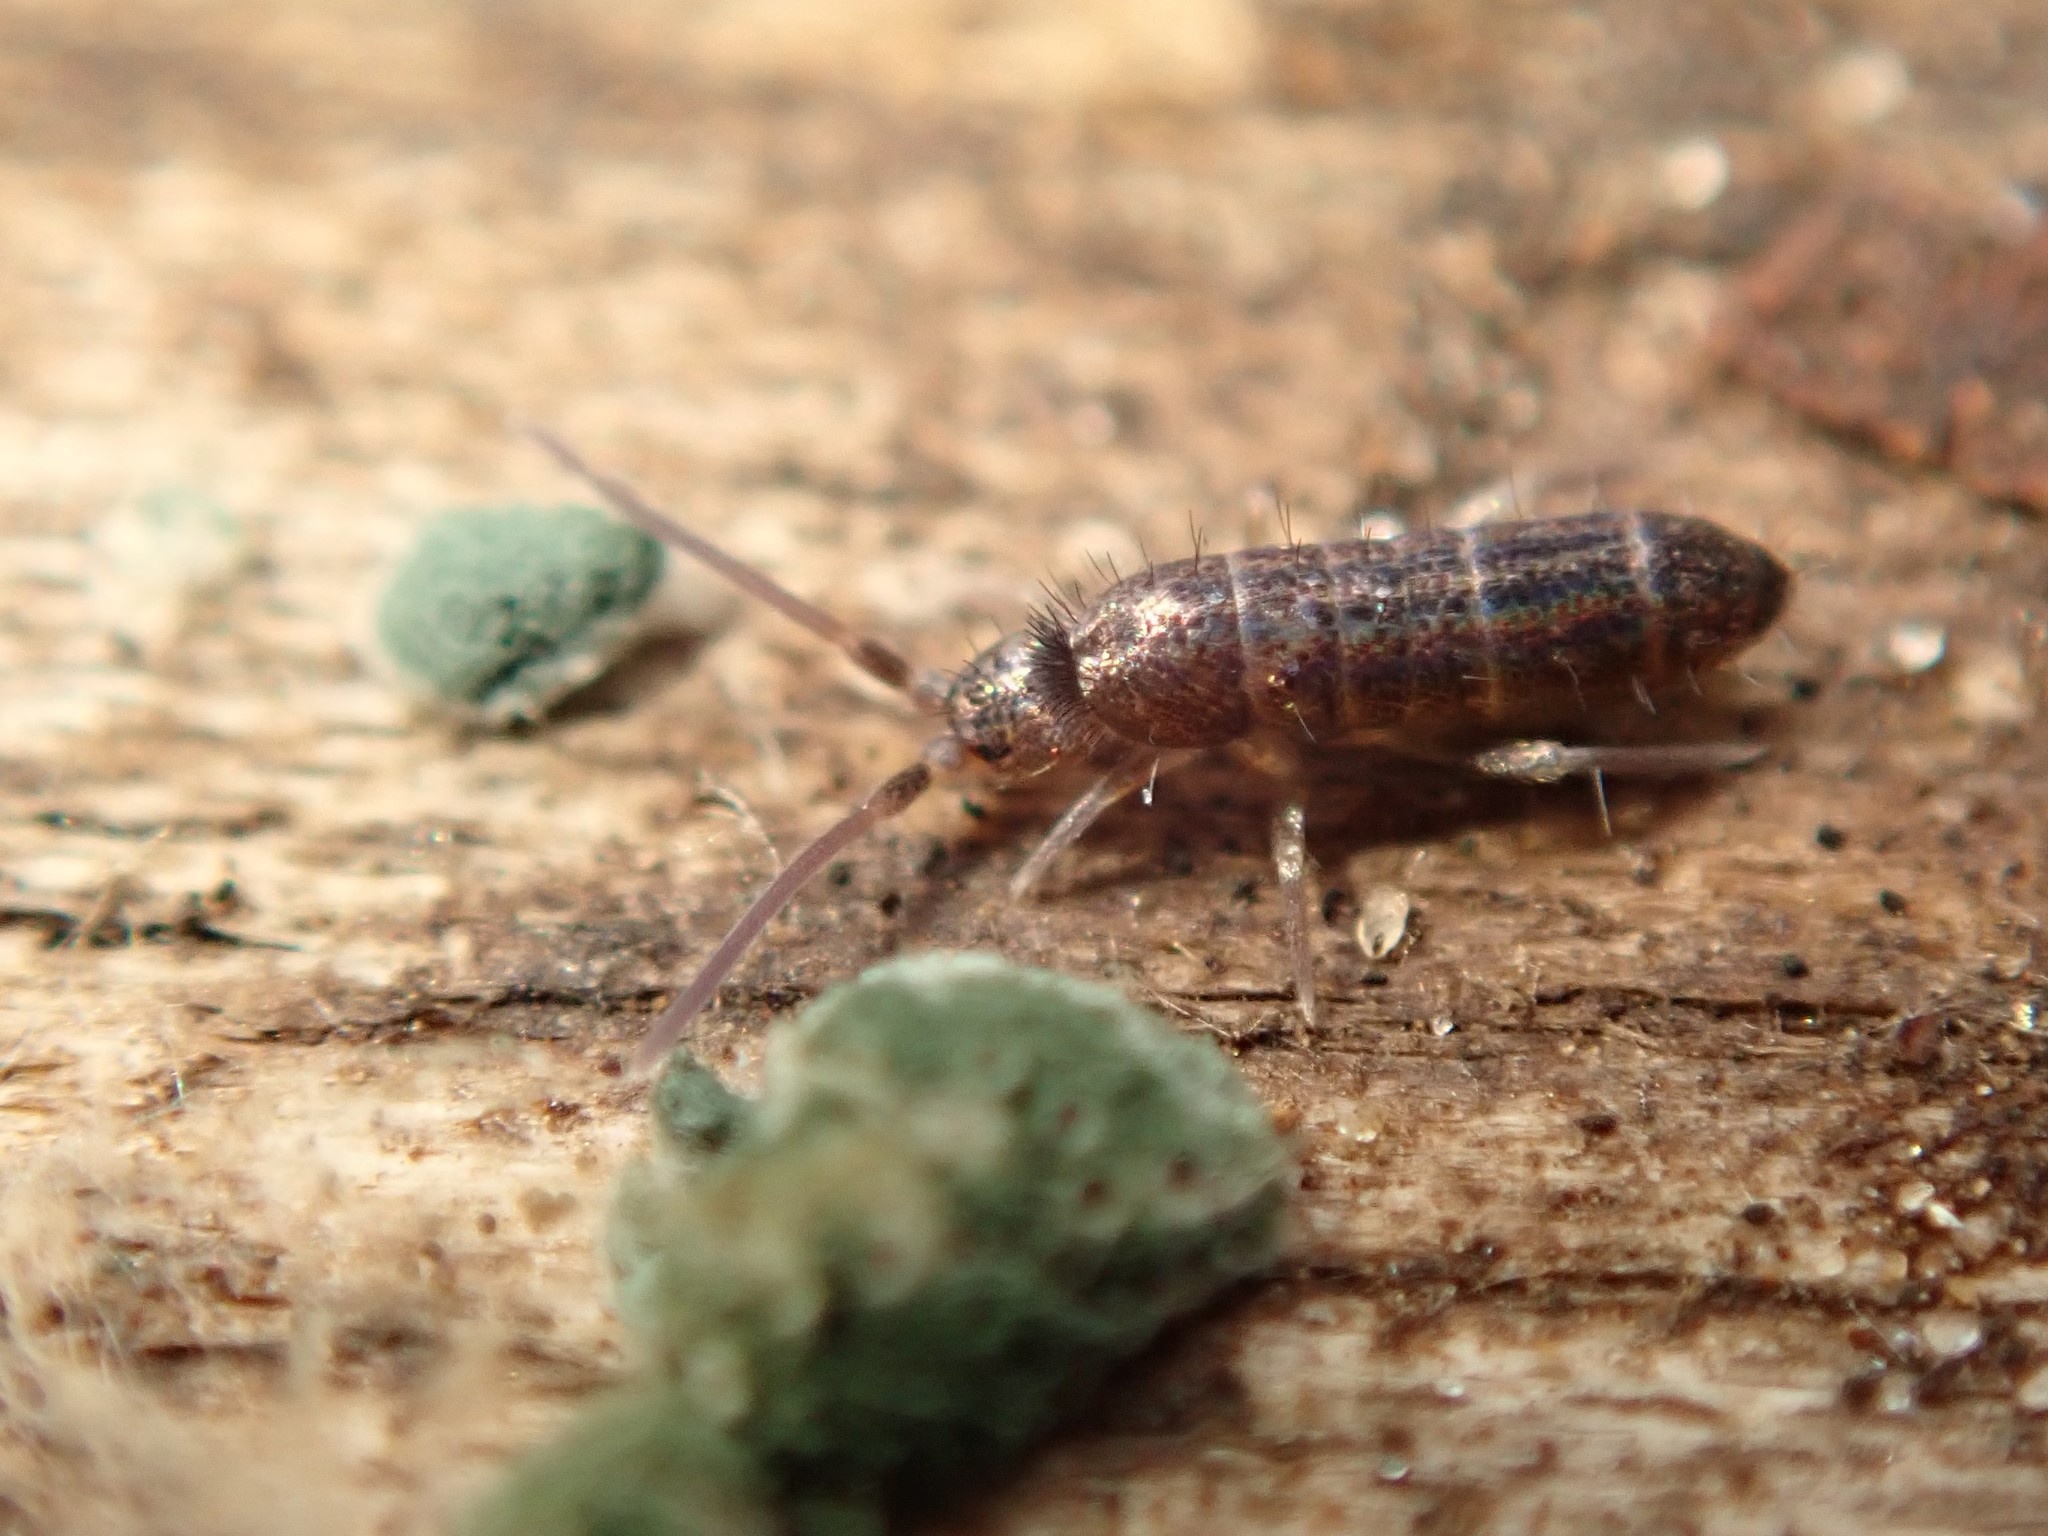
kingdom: Animalia
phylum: Arthropoda
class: Collembola
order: Entomobryomorpha
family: Tomoceridae
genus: Tomocerus
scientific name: Tomocerus vulgaris
